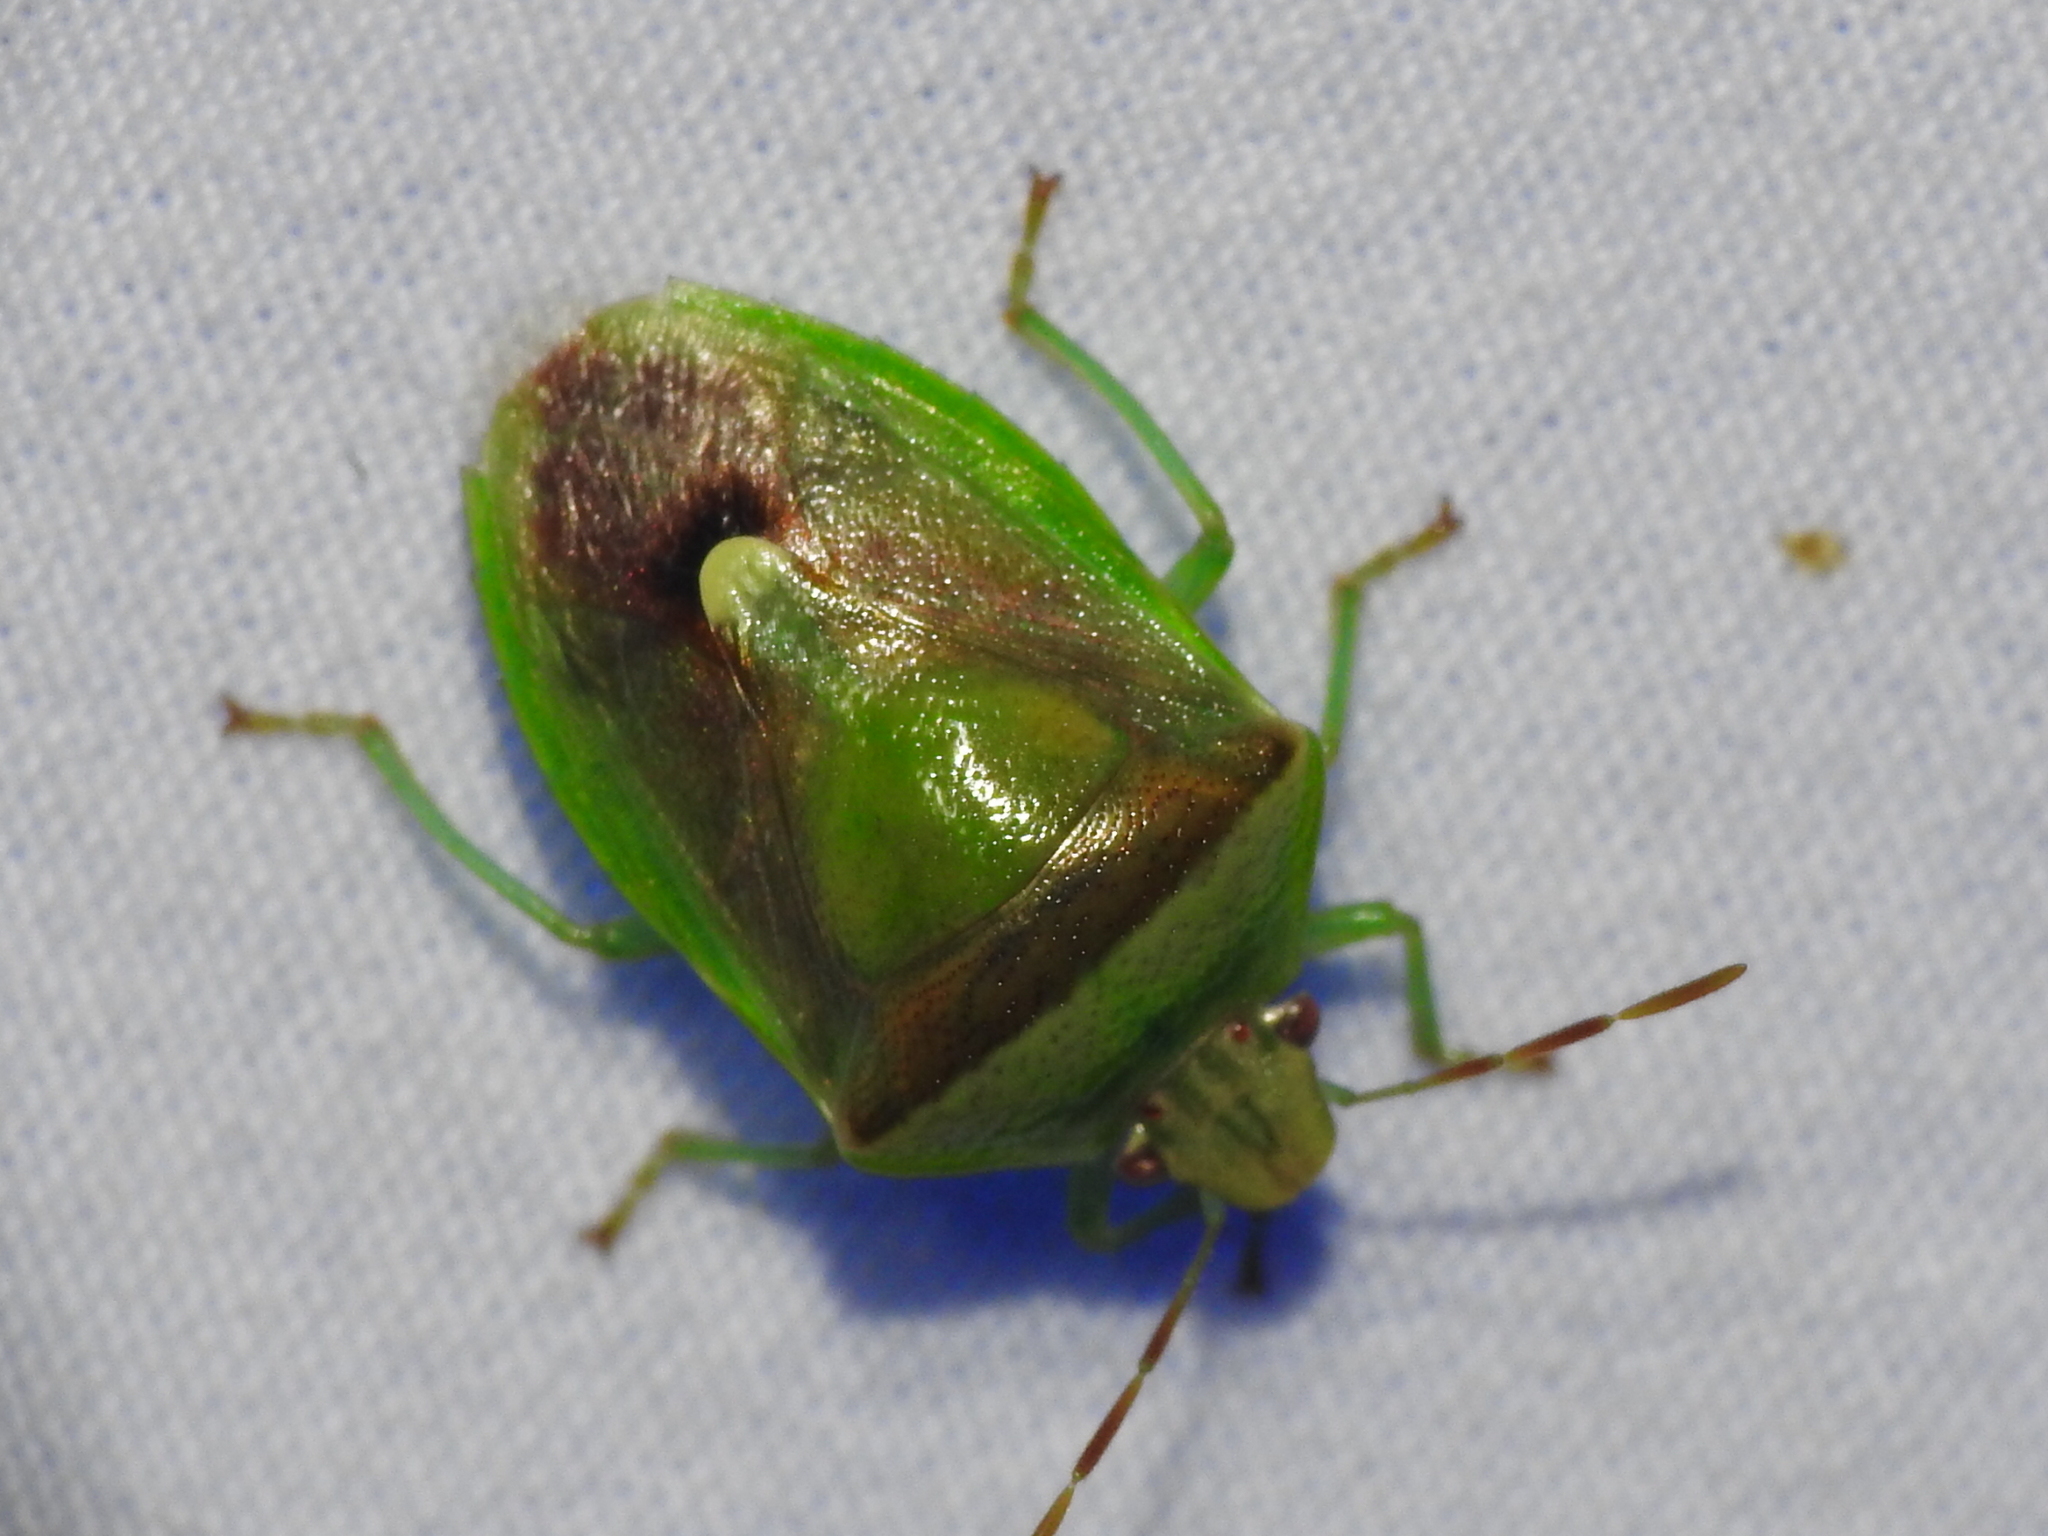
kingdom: Animalia
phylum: Arthropoda
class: Insecta
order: Hemiptera
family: Pentatomidae
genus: Banasa
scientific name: Banasa dimidiata
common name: Green burgundy stink bug
